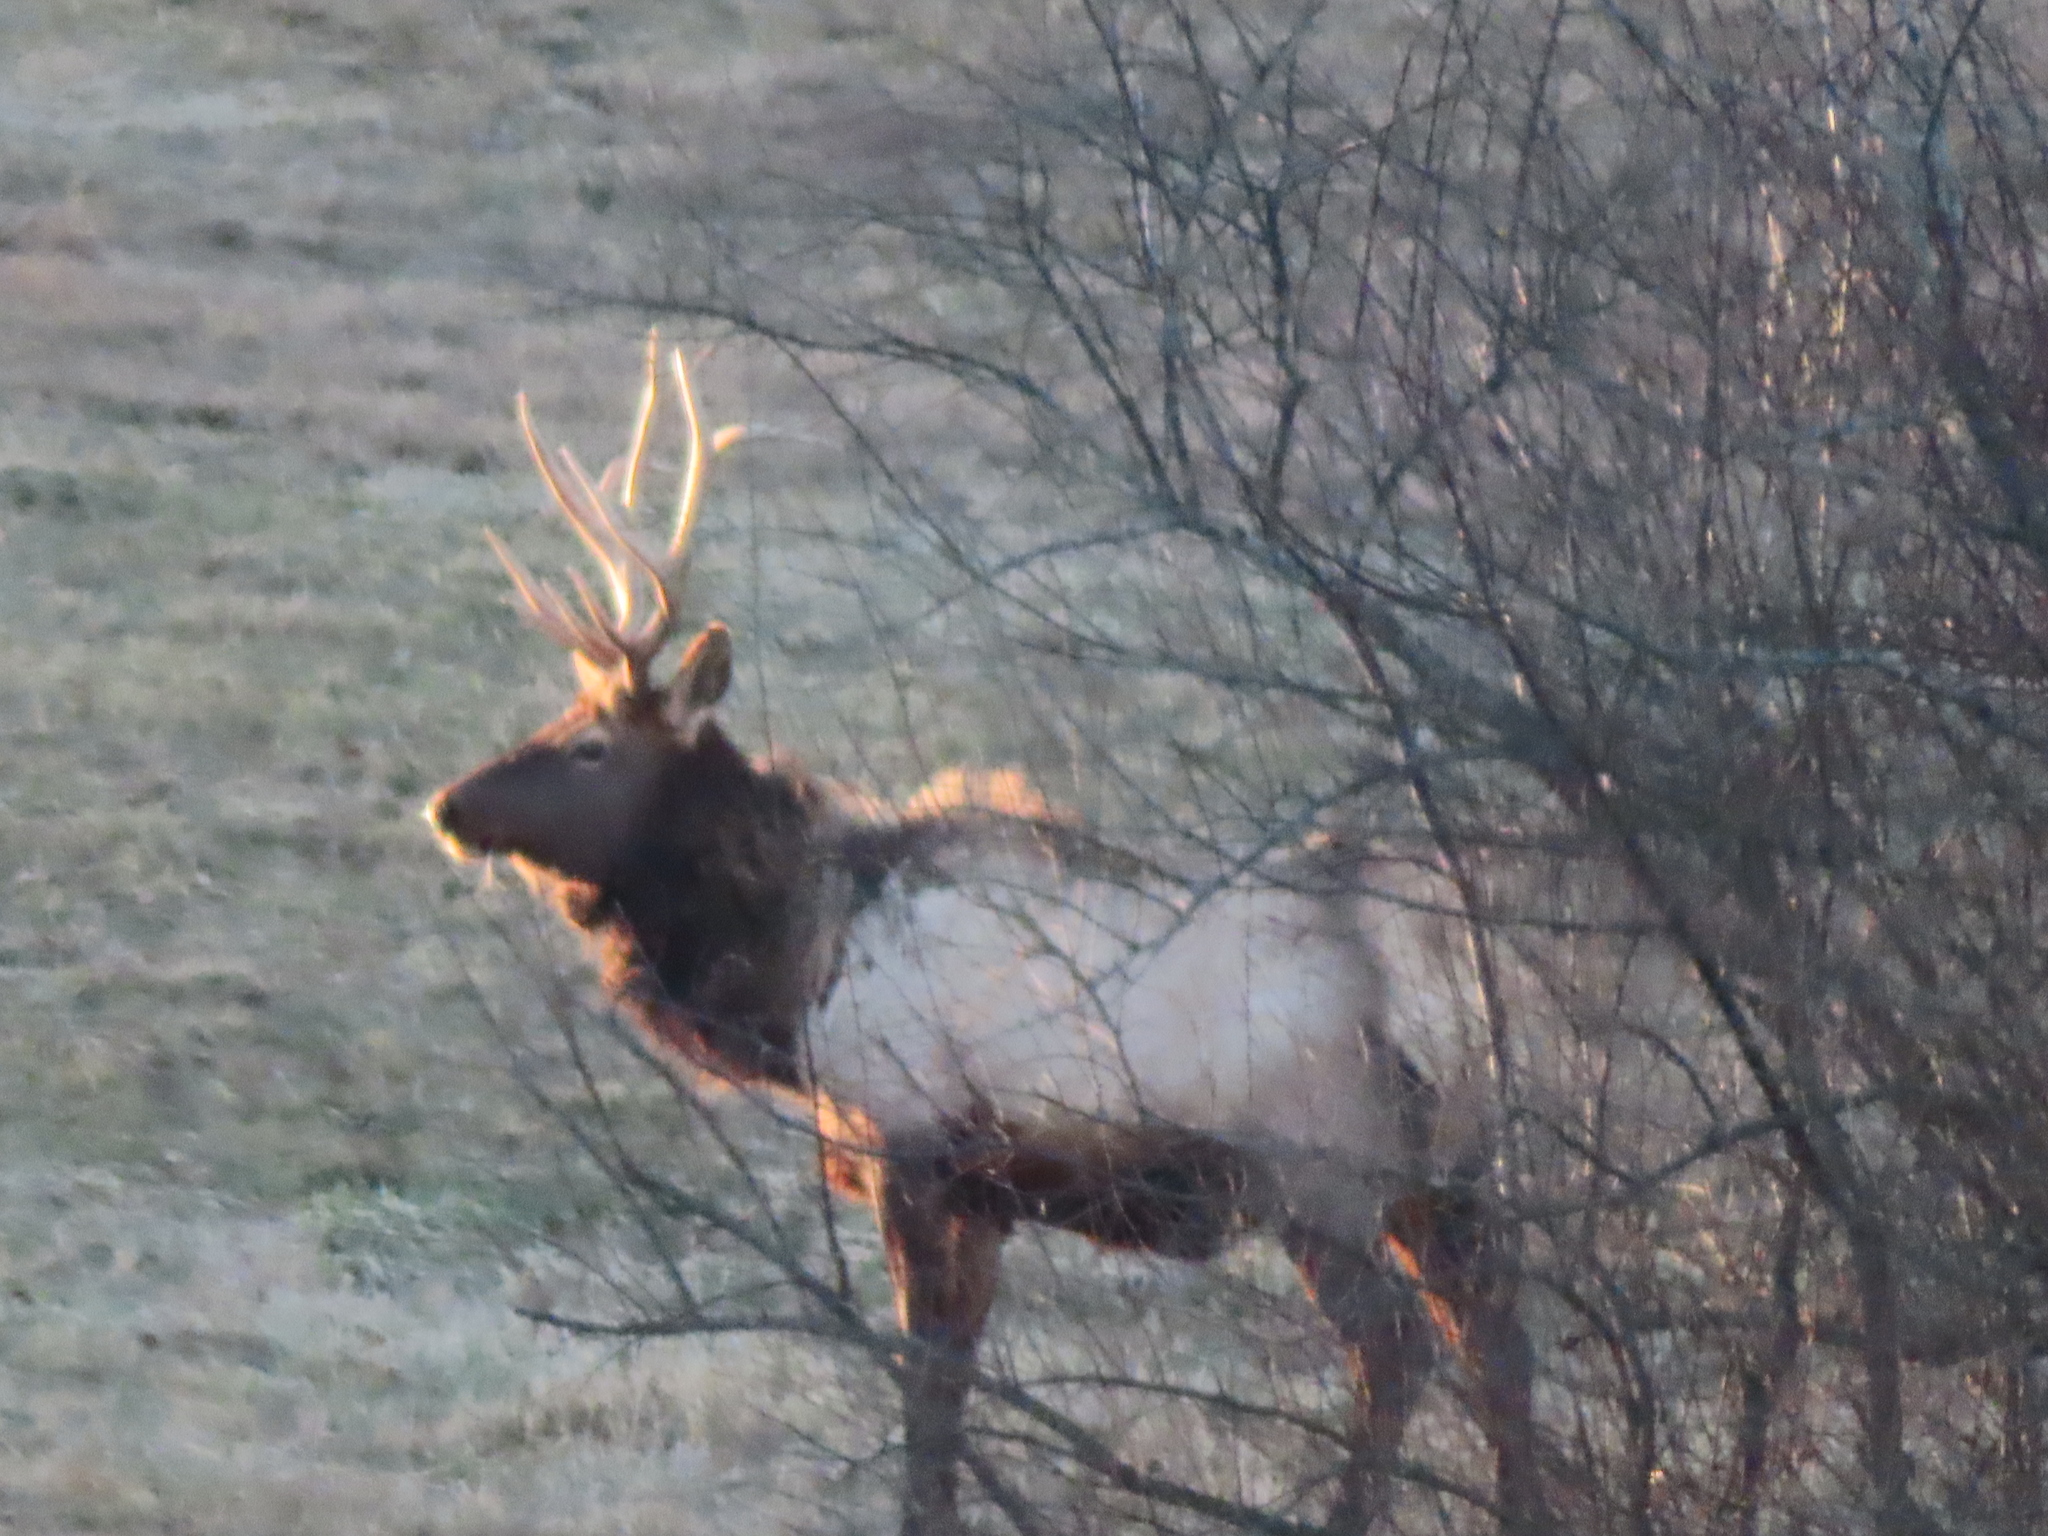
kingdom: Animalia
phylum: Chordata
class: Mammalia
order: Artiodactyla
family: Cervidae
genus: Cervus
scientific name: Cervus elaphus
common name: Red deer
